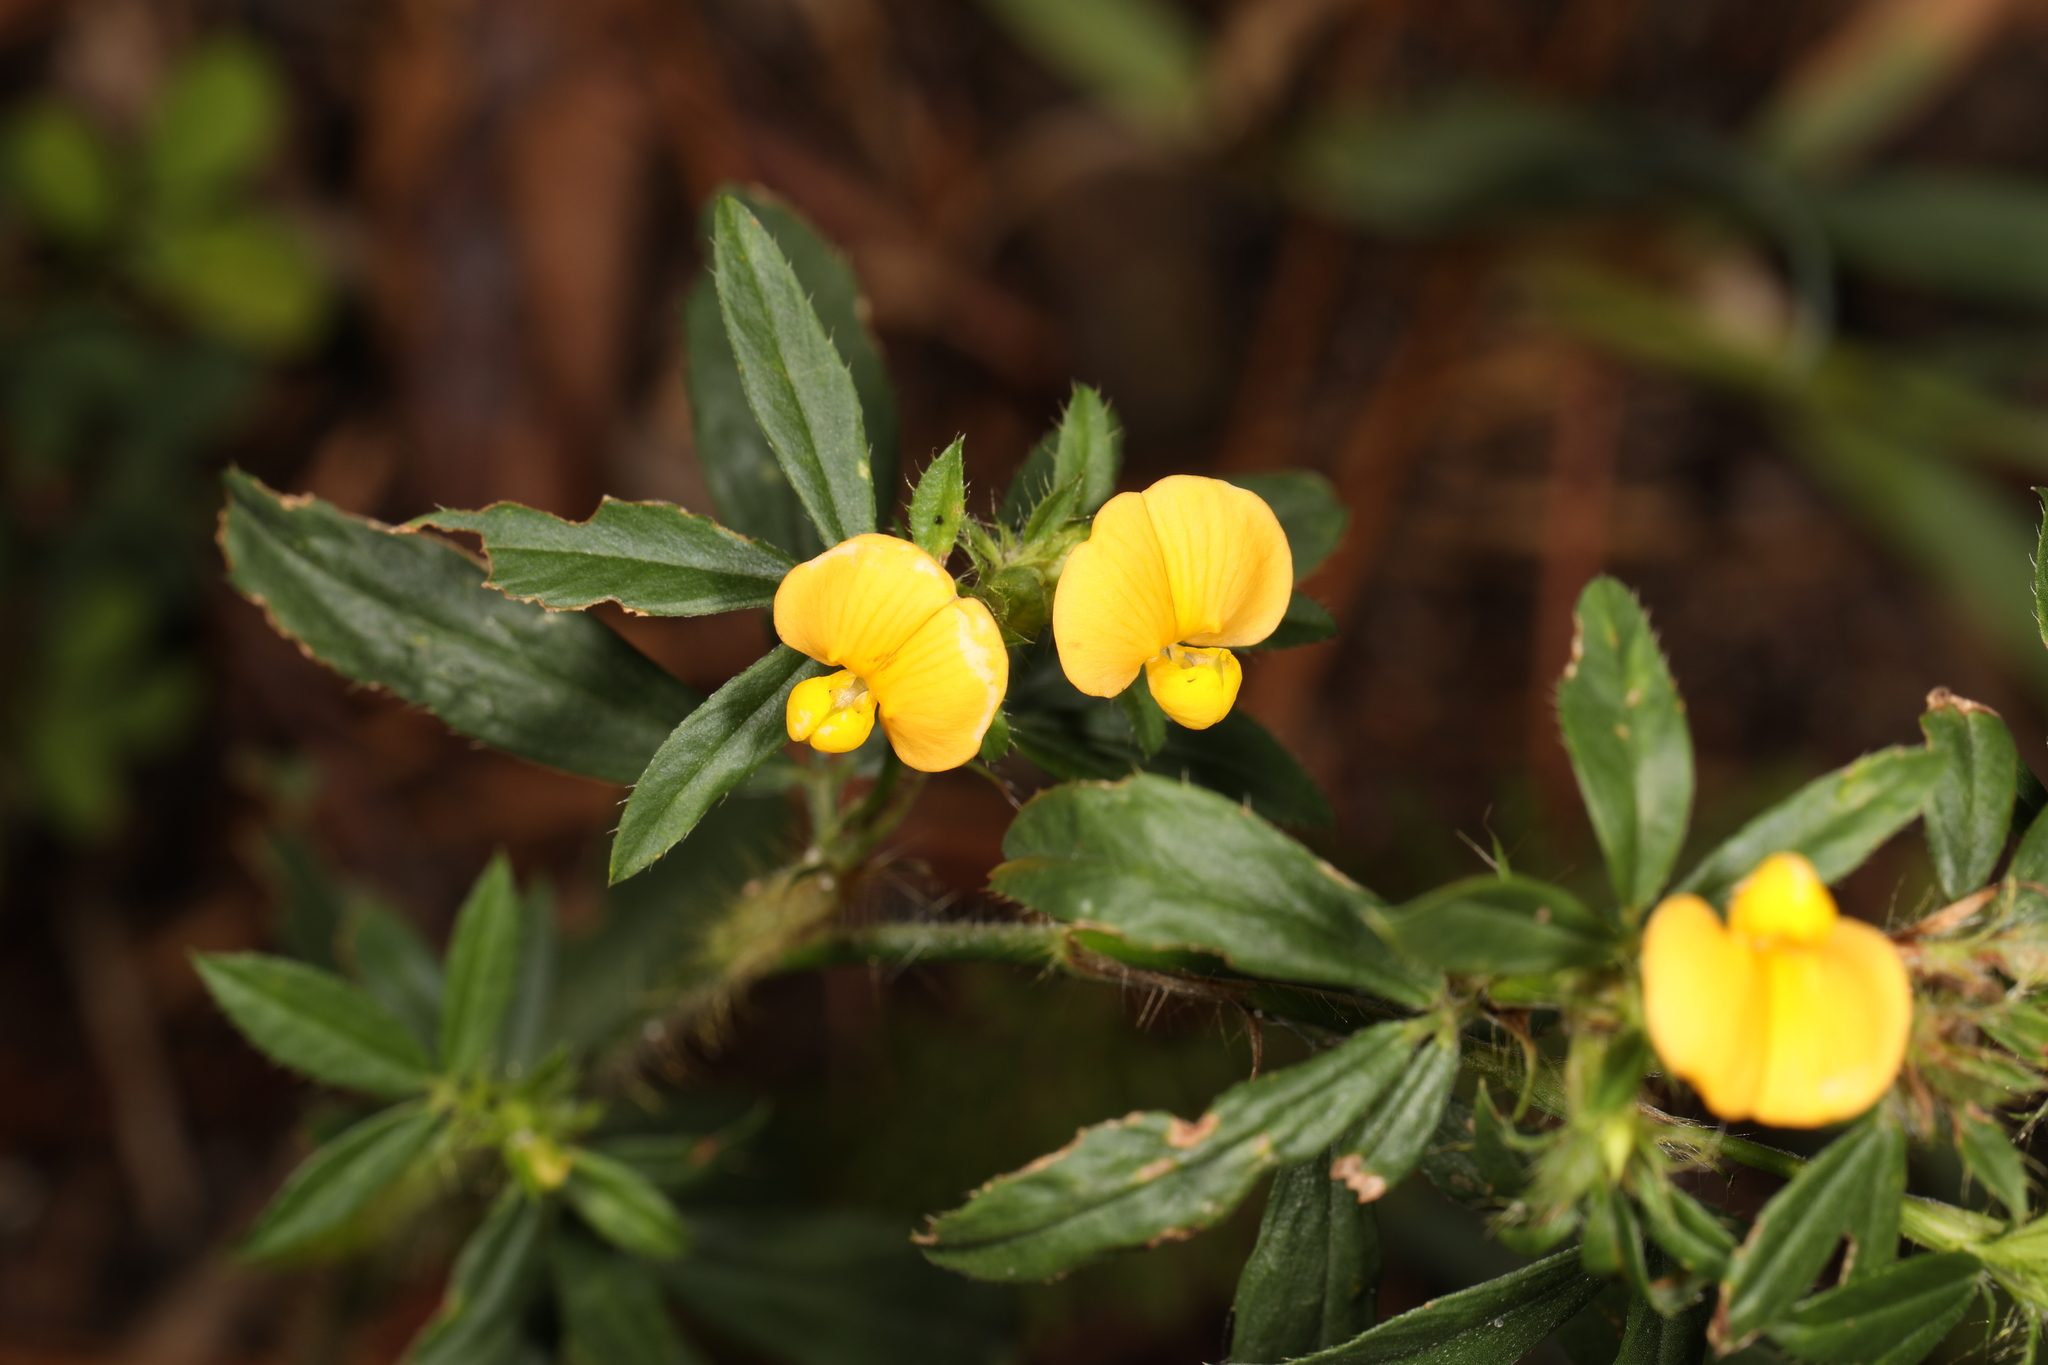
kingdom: Plantae
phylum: Tracheophyta
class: Magnoliopsida
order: Fabales
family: Fabaceae
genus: Stylosanthes
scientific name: Stylosanthes biflora
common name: Two-flower pencil-flower
